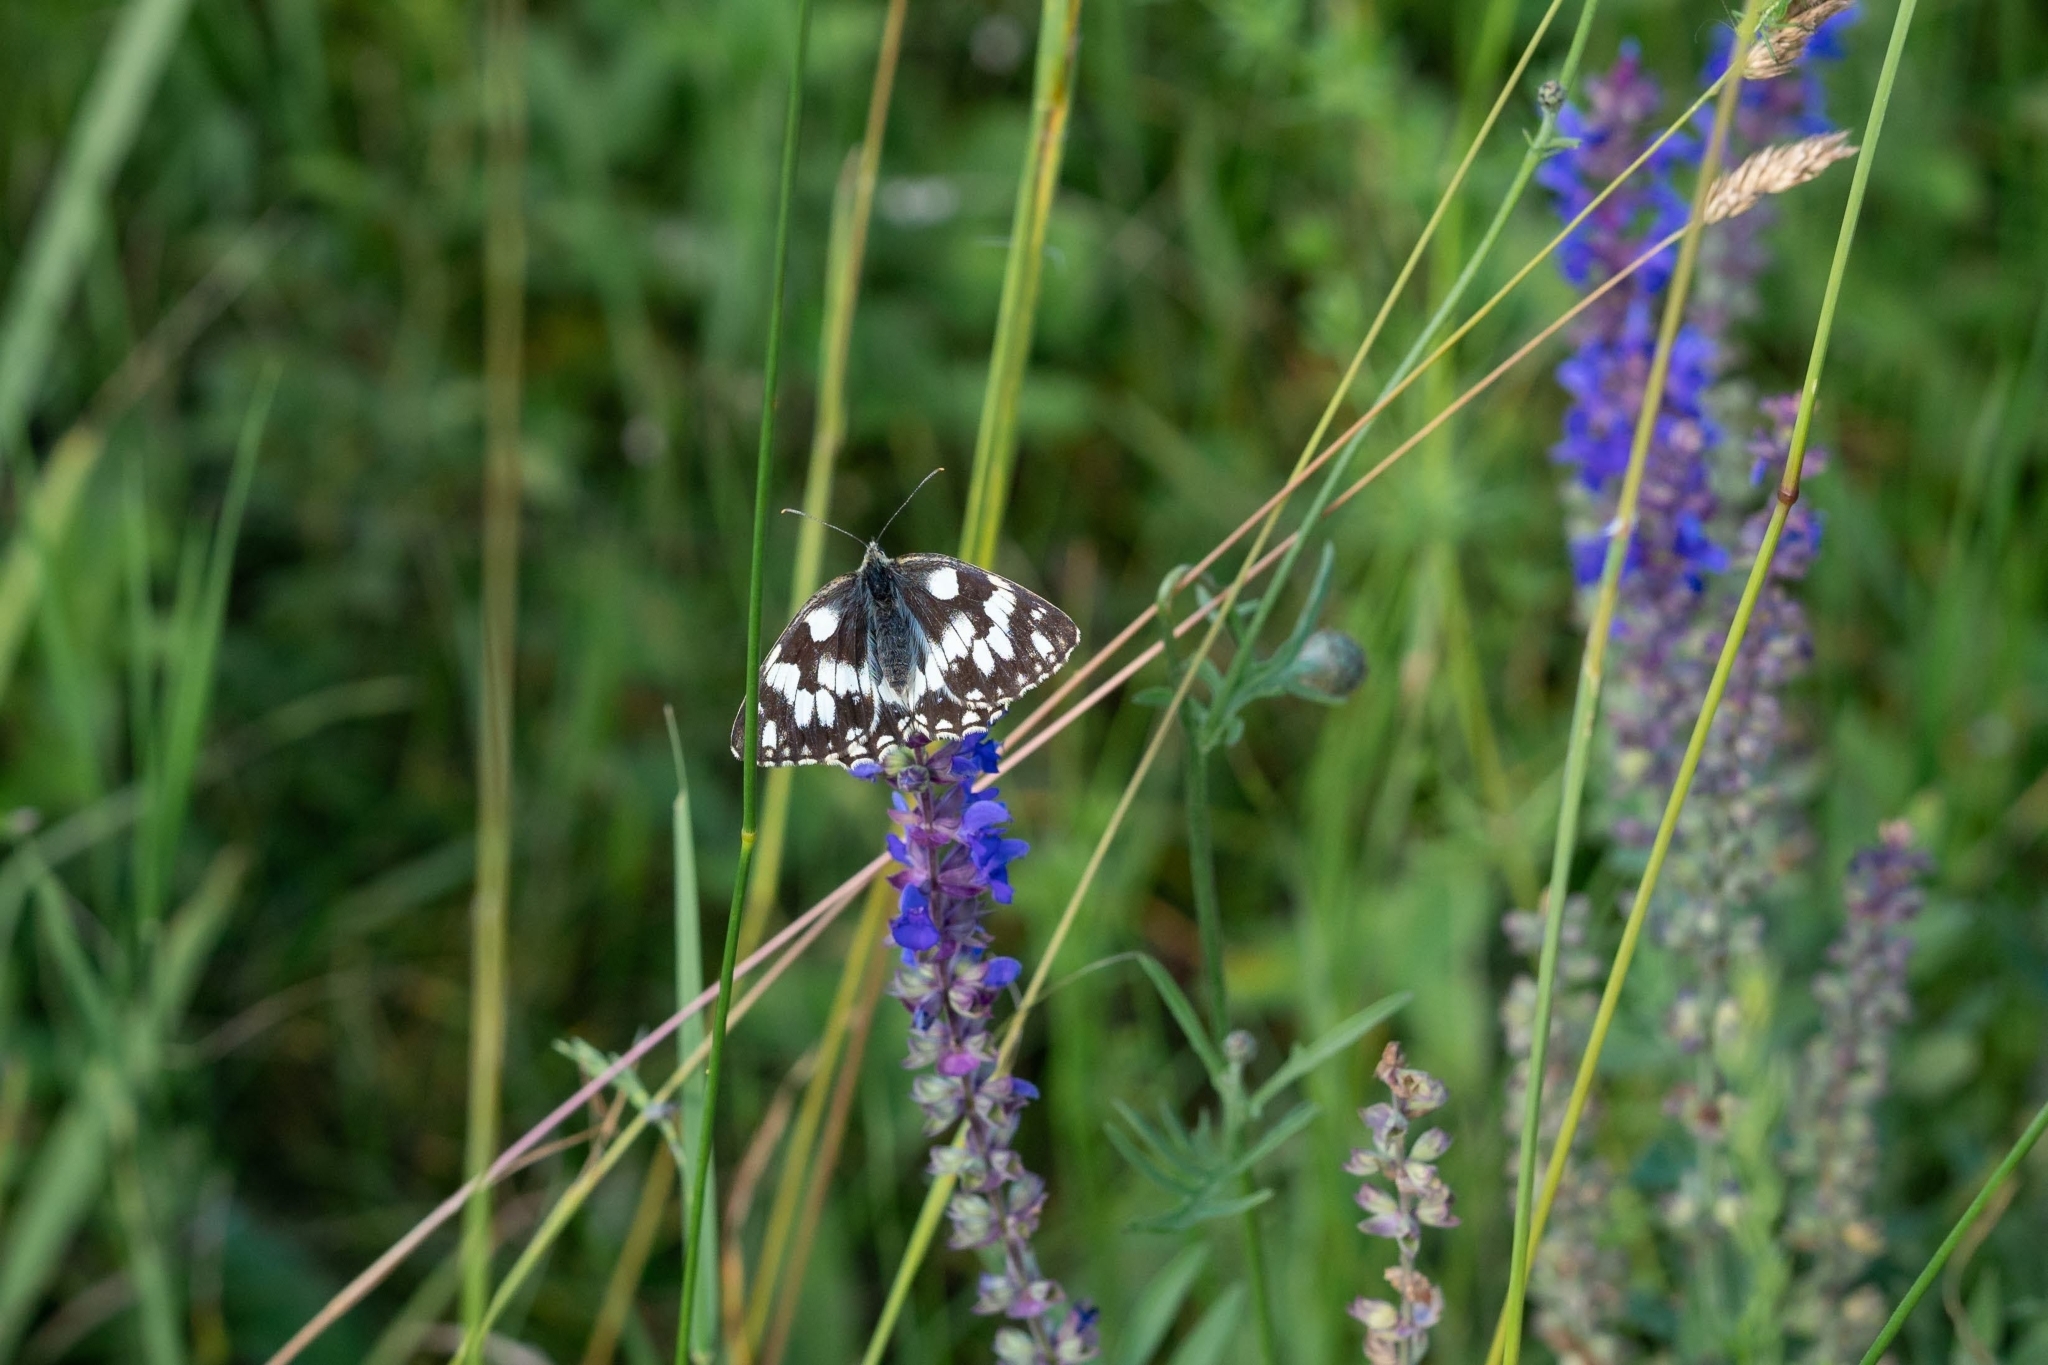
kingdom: Animalia
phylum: Arthropoda
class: Insecta
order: Lepidoptera
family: Nymphalidae
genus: Melanargia
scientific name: Melanargia galathea
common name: Marbled white
